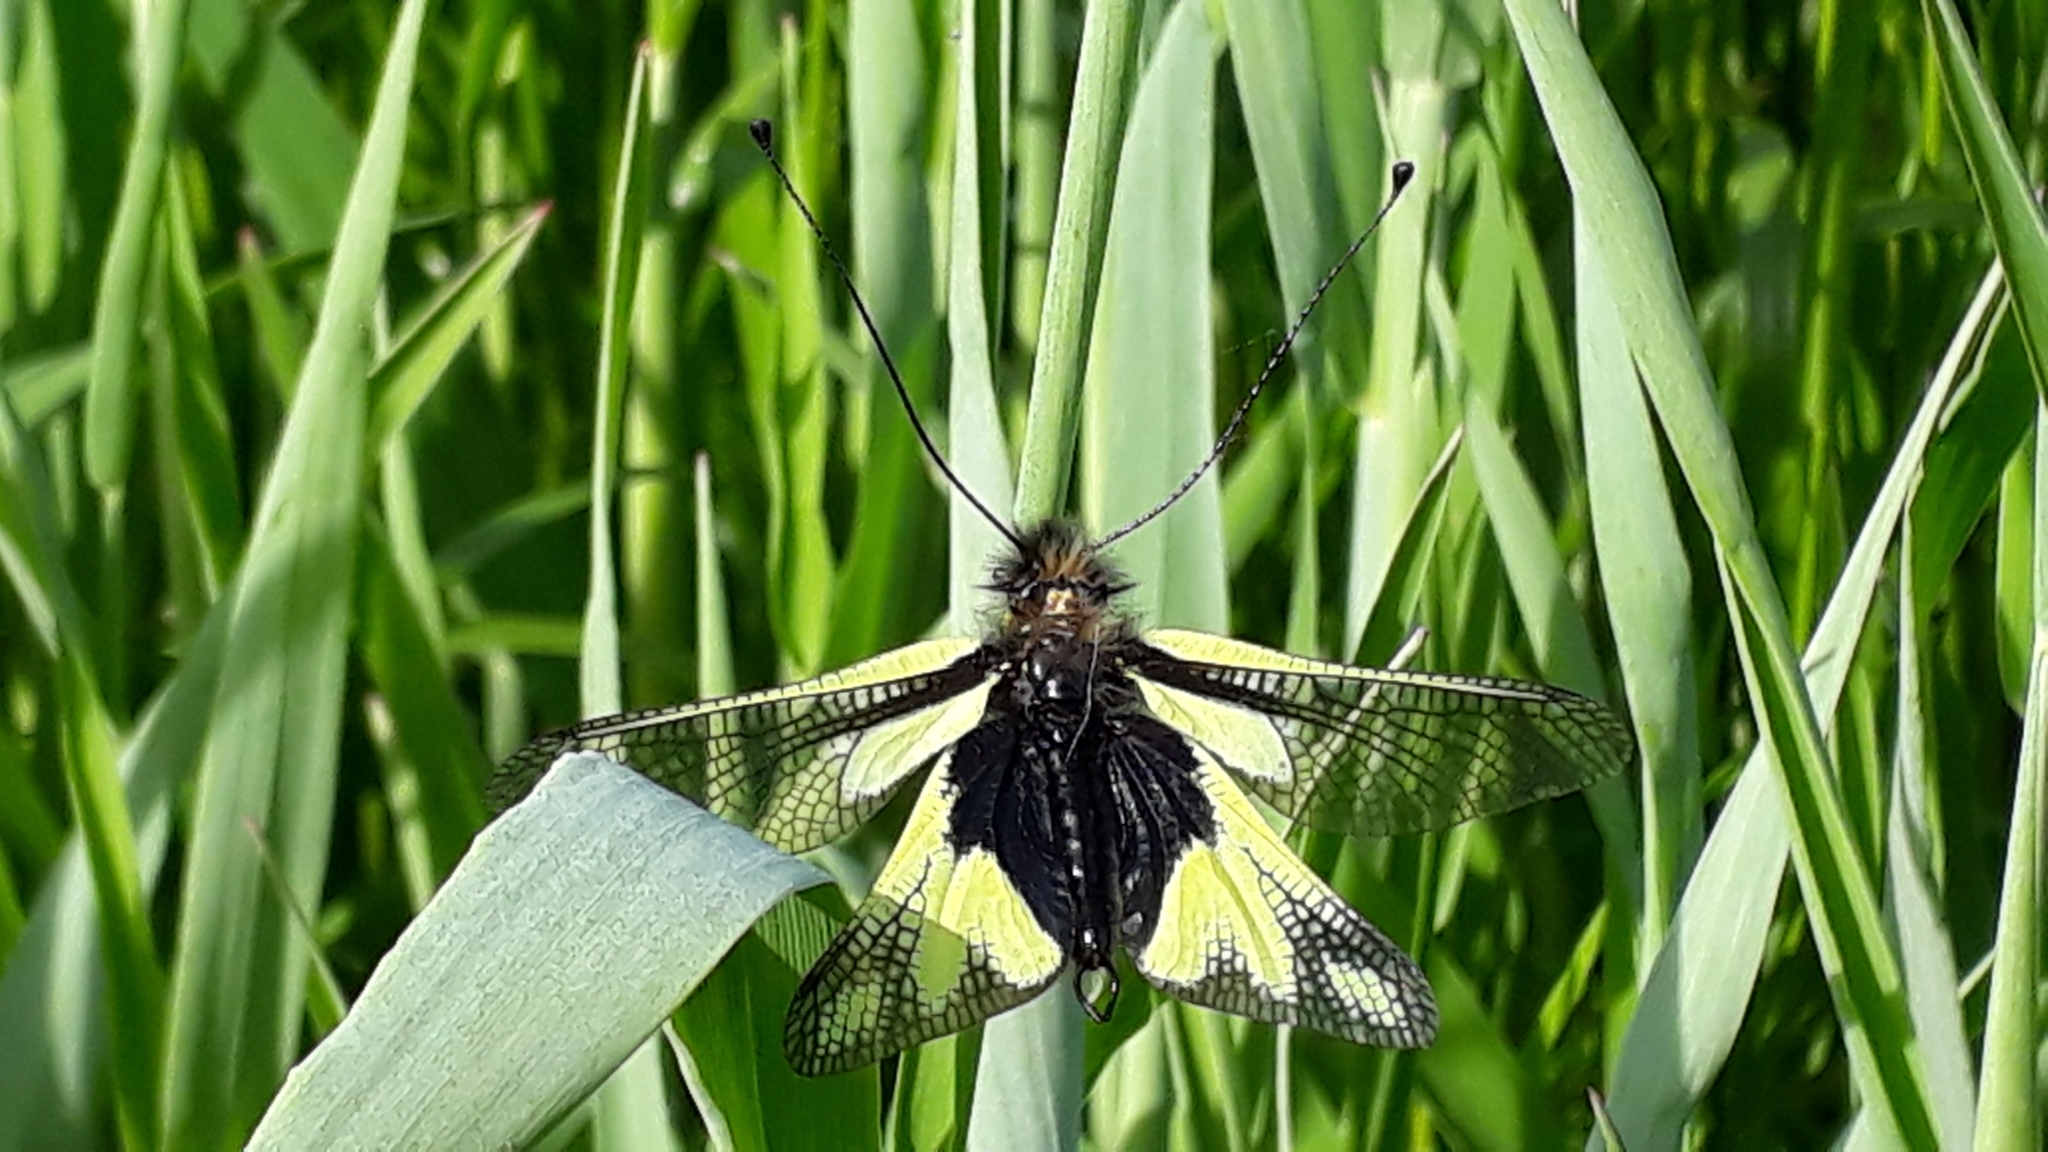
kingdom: Animalia
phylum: Arthropoda
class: Insecta
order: Neuroptera
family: Ascalaphidae
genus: Libelloides
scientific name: Libelloides coccajus
